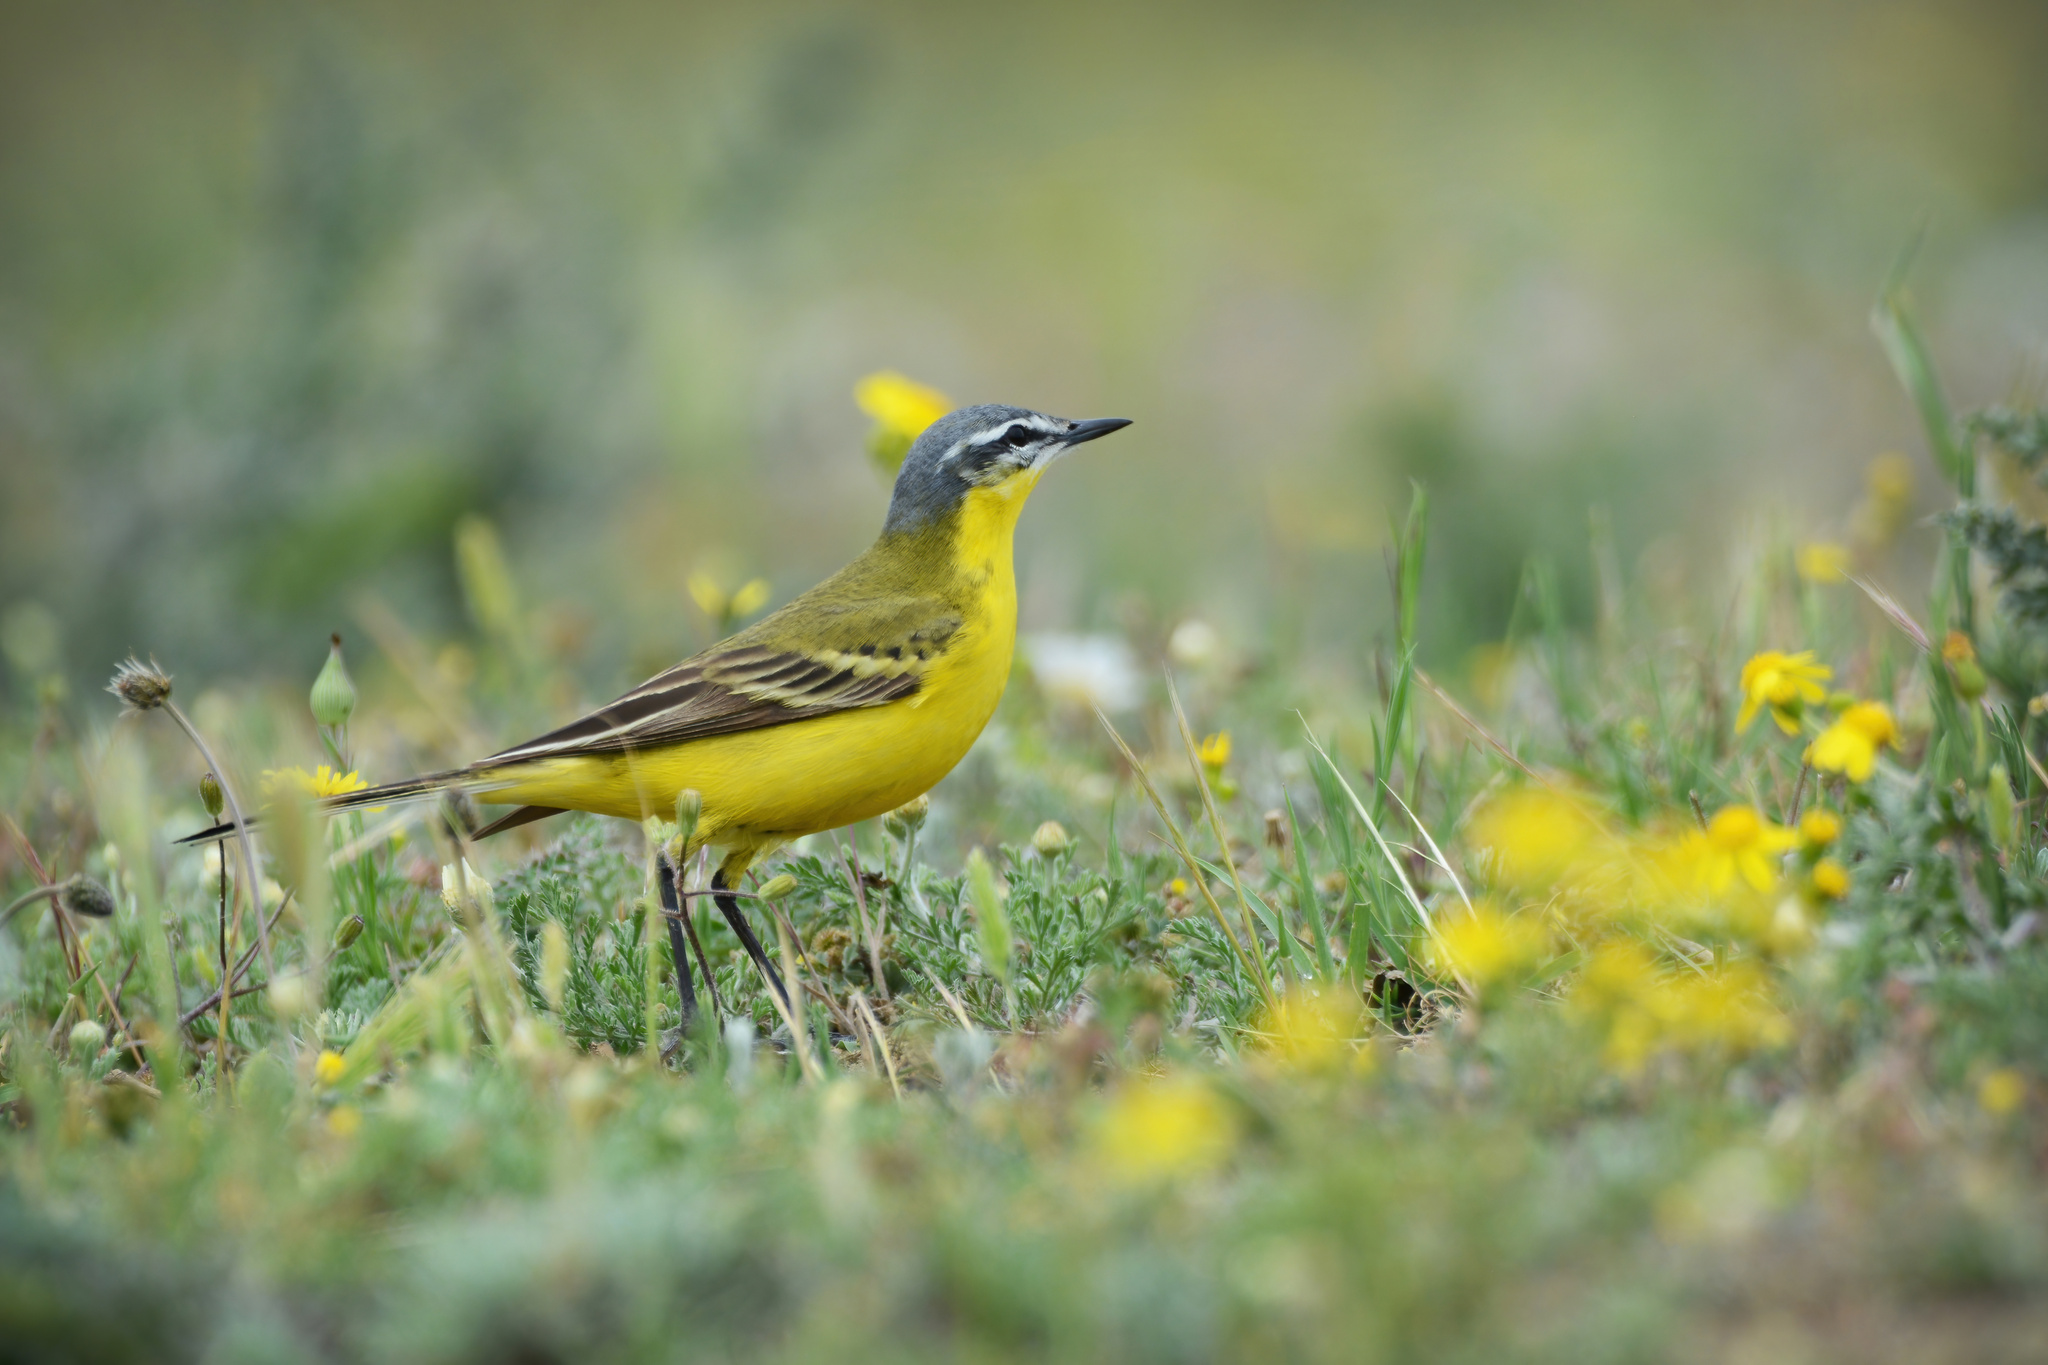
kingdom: Animalia
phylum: Chordata
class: Aves
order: Passeriformes
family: Motacillidae
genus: Motacilla
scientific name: Motacilla flava
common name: Western yellow wagtail
